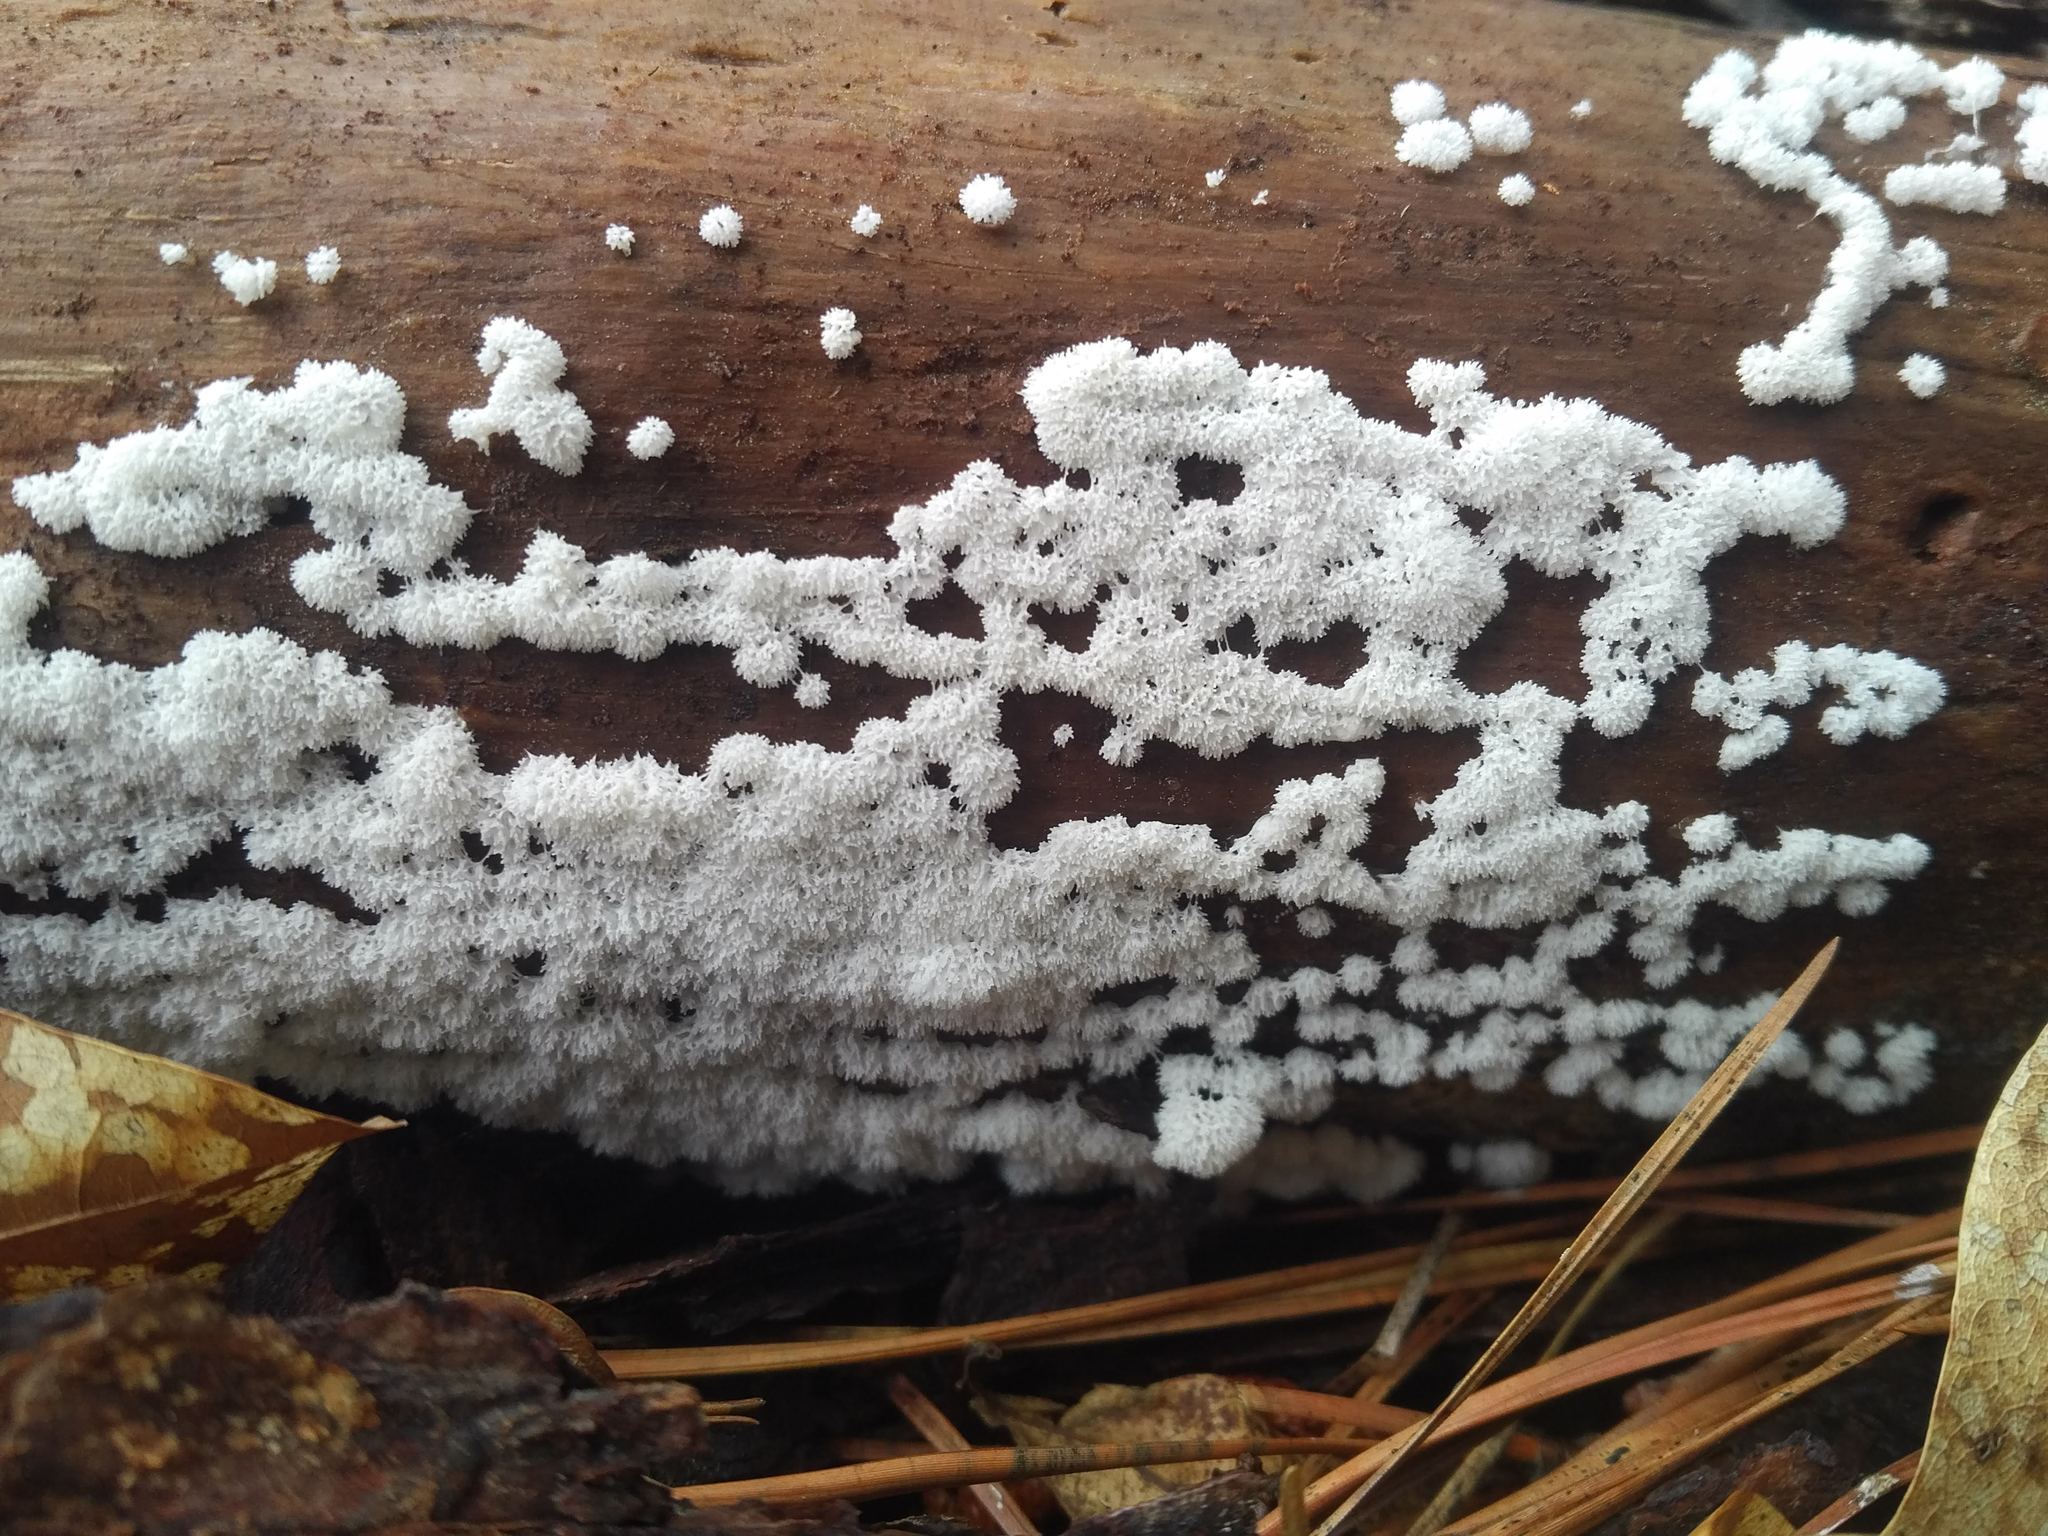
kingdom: Protozoa
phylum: Mycetozoa
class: Protosteliomycetes
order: Ceratiomyxales
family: Ceratiomyxaceae
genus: Ceratiomyxa
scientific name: Ceratiomyxa fruticulosa
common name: Honeycomb coral slime mold
